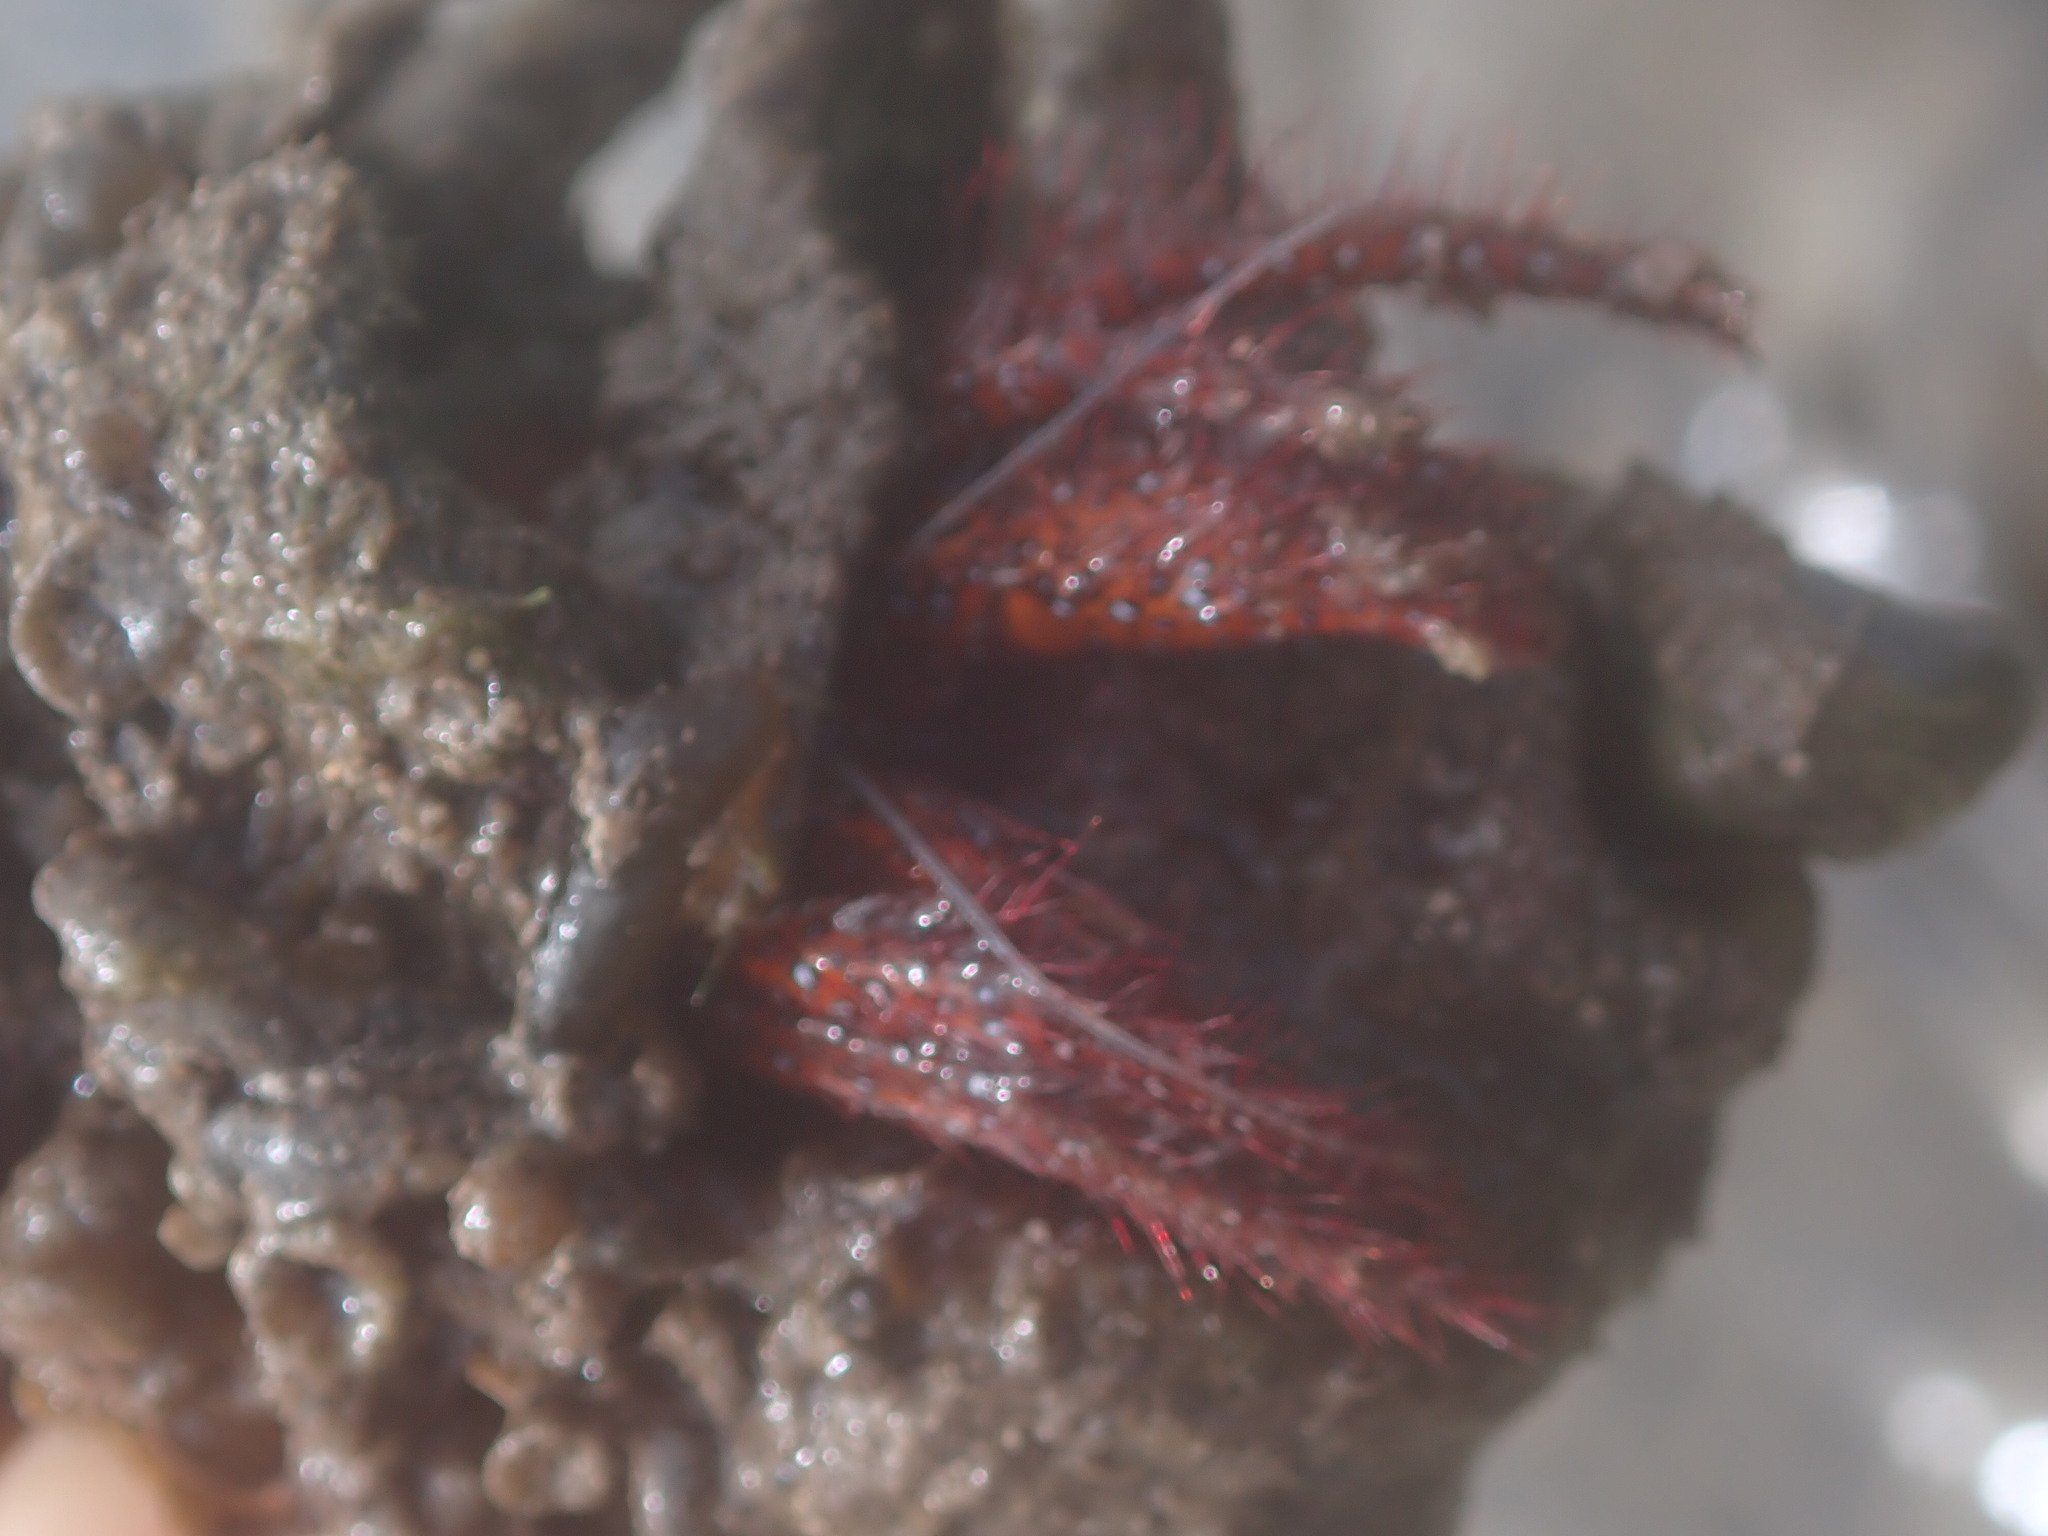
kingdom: Animalia
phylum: Arthropoda
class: Malacostraca
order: Decapoda
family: Diogenidae
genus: Dardanus
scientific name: Dardanus megistos
